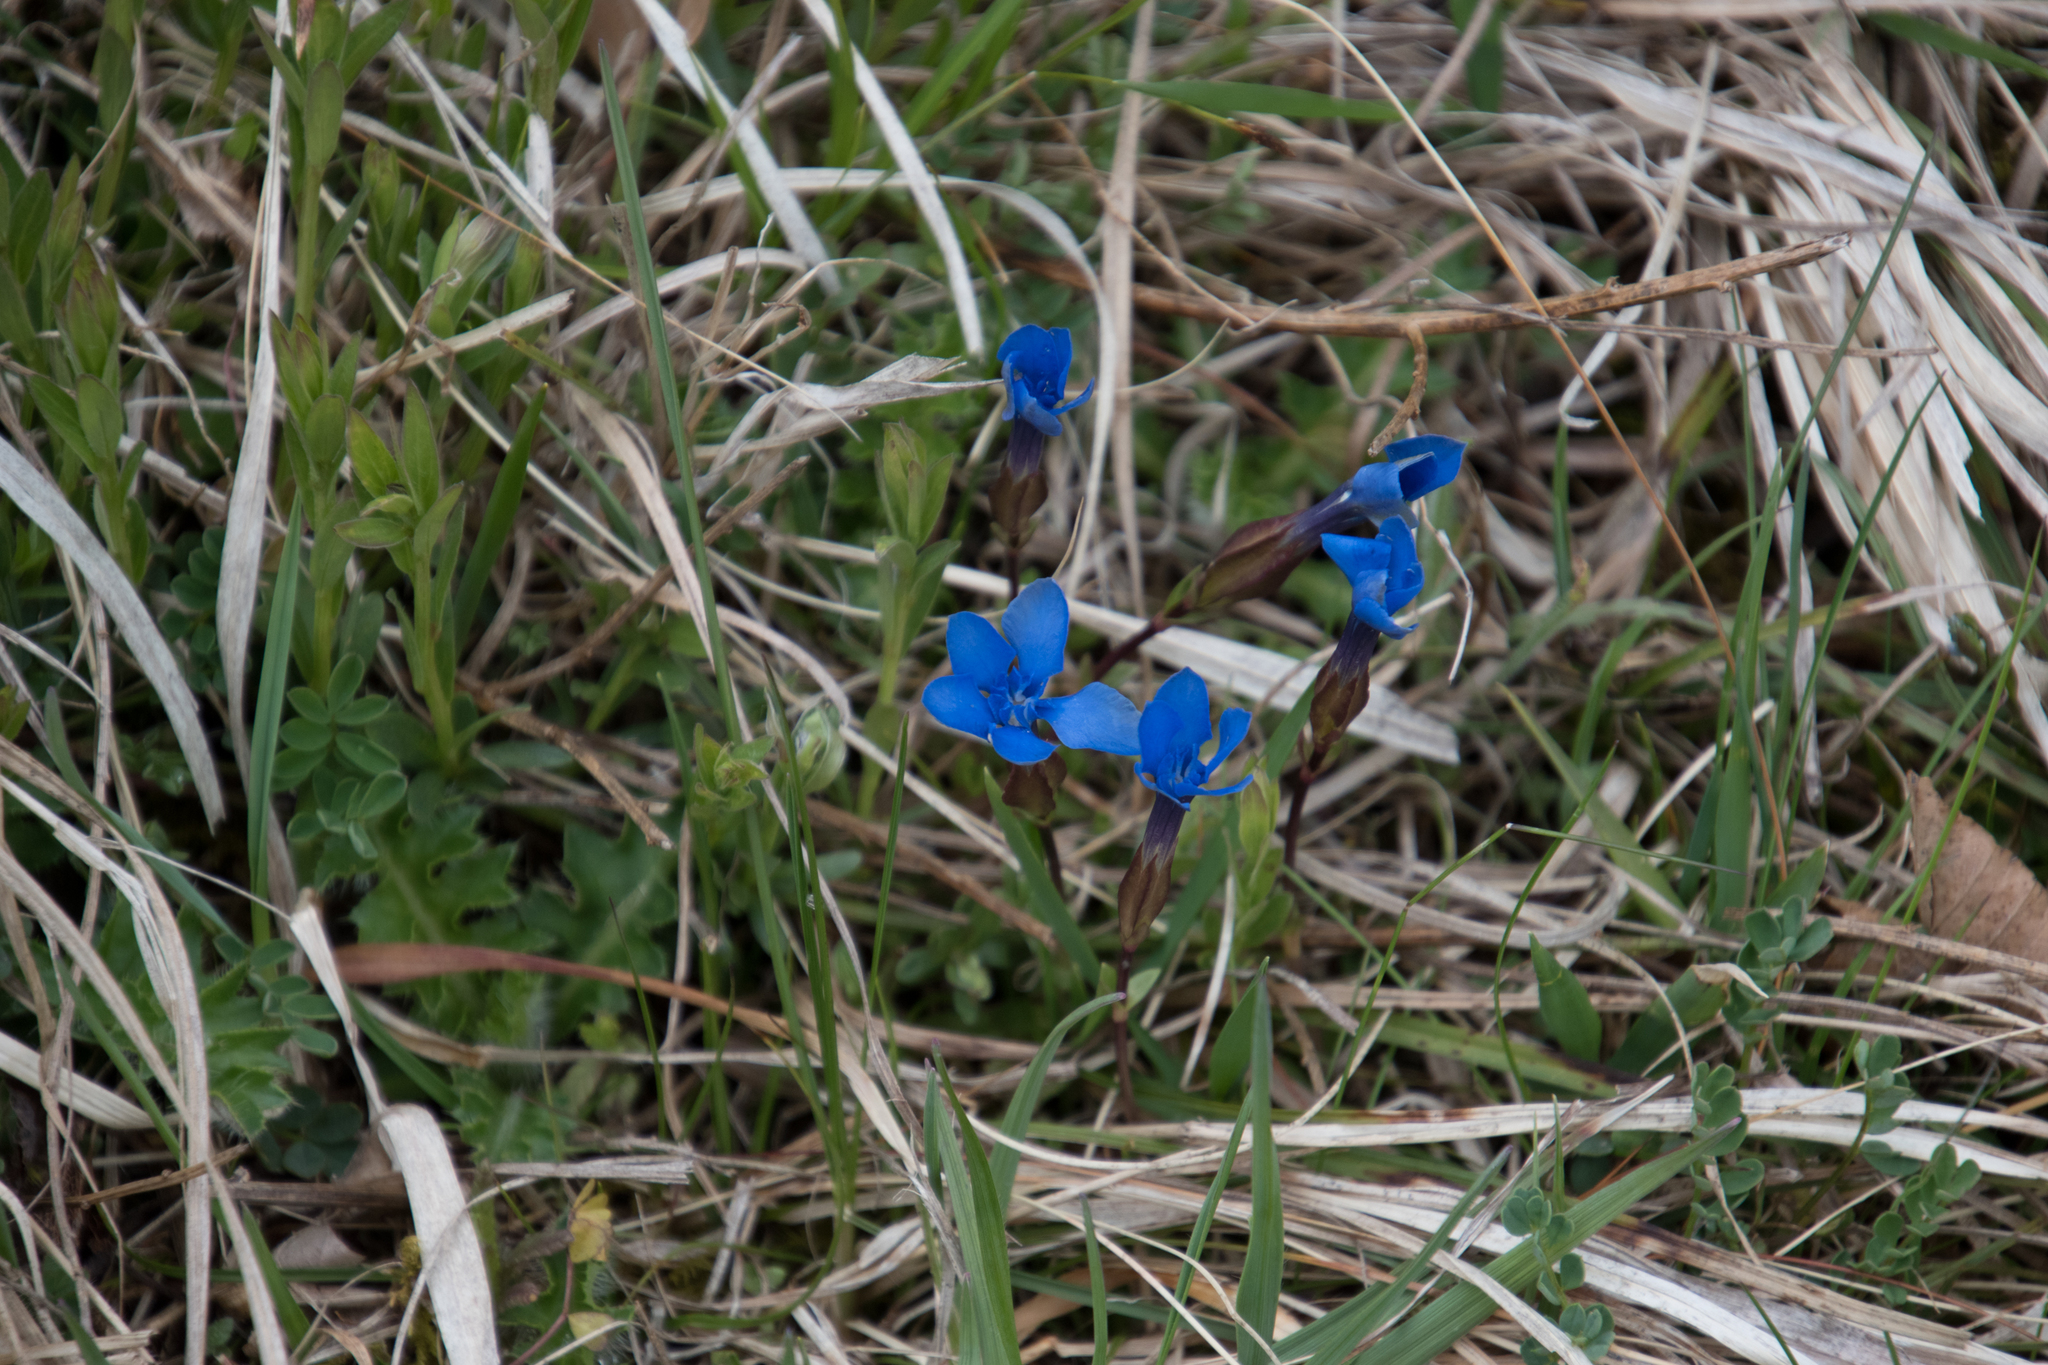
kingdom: Plantae
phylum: Tracheophyta
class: Magnoliopsida
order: Gentianales
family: Gentianaceae
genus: Gentiana
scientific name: Gentiana verna
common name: Spring gentian
